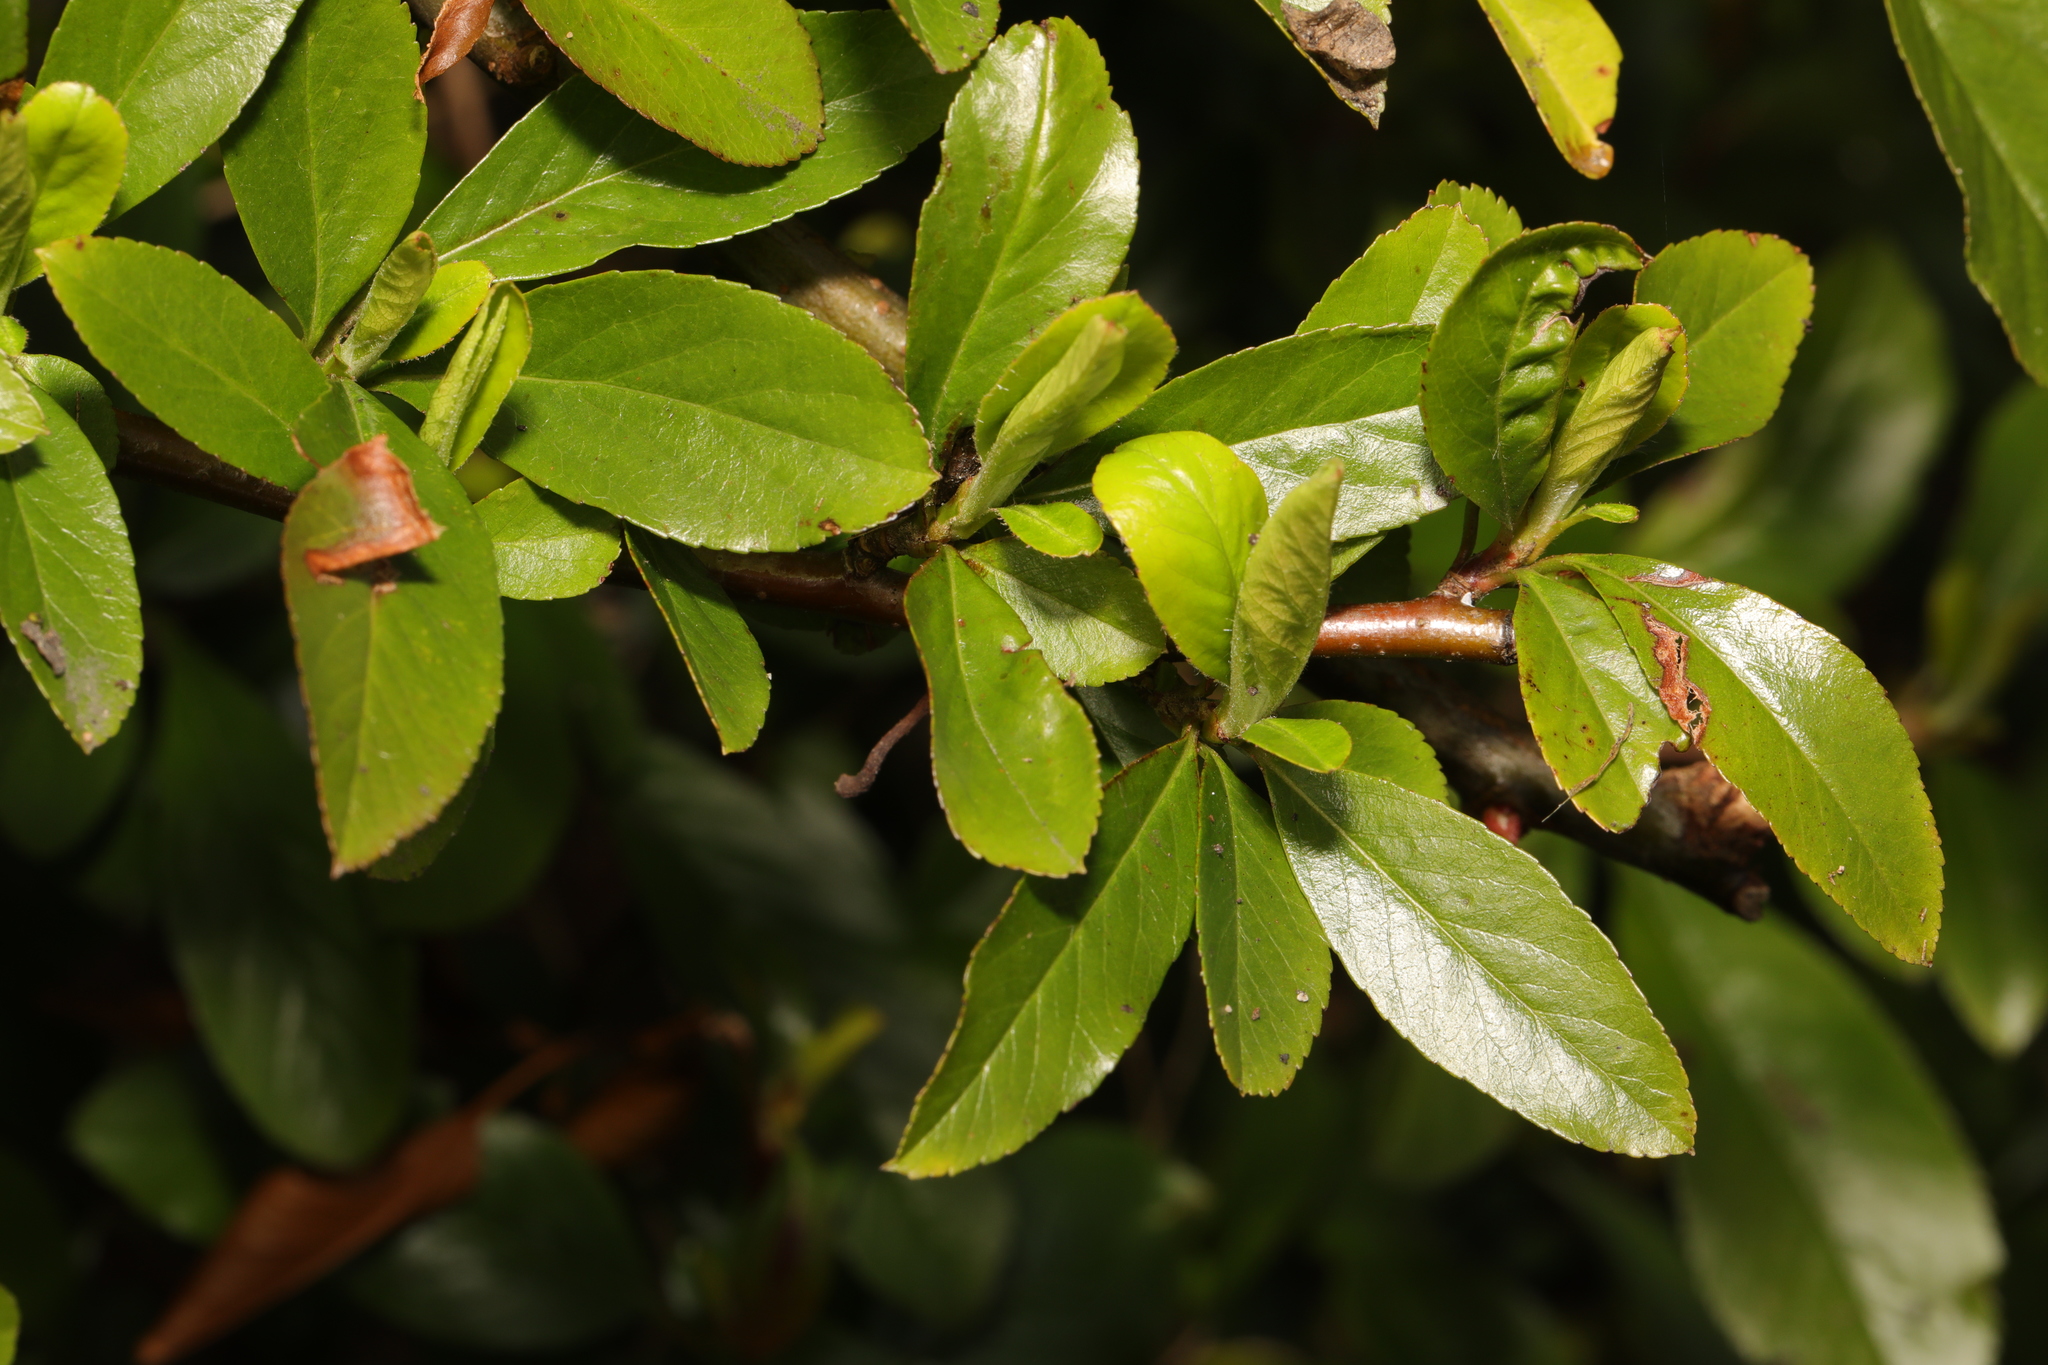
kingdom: Plantae
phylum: Tracheophyta
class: Magnoliopsida
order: Rosales
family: Rosaceae
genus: Pyracantha
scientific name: Pyracantha coccinea
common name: Firethorn
